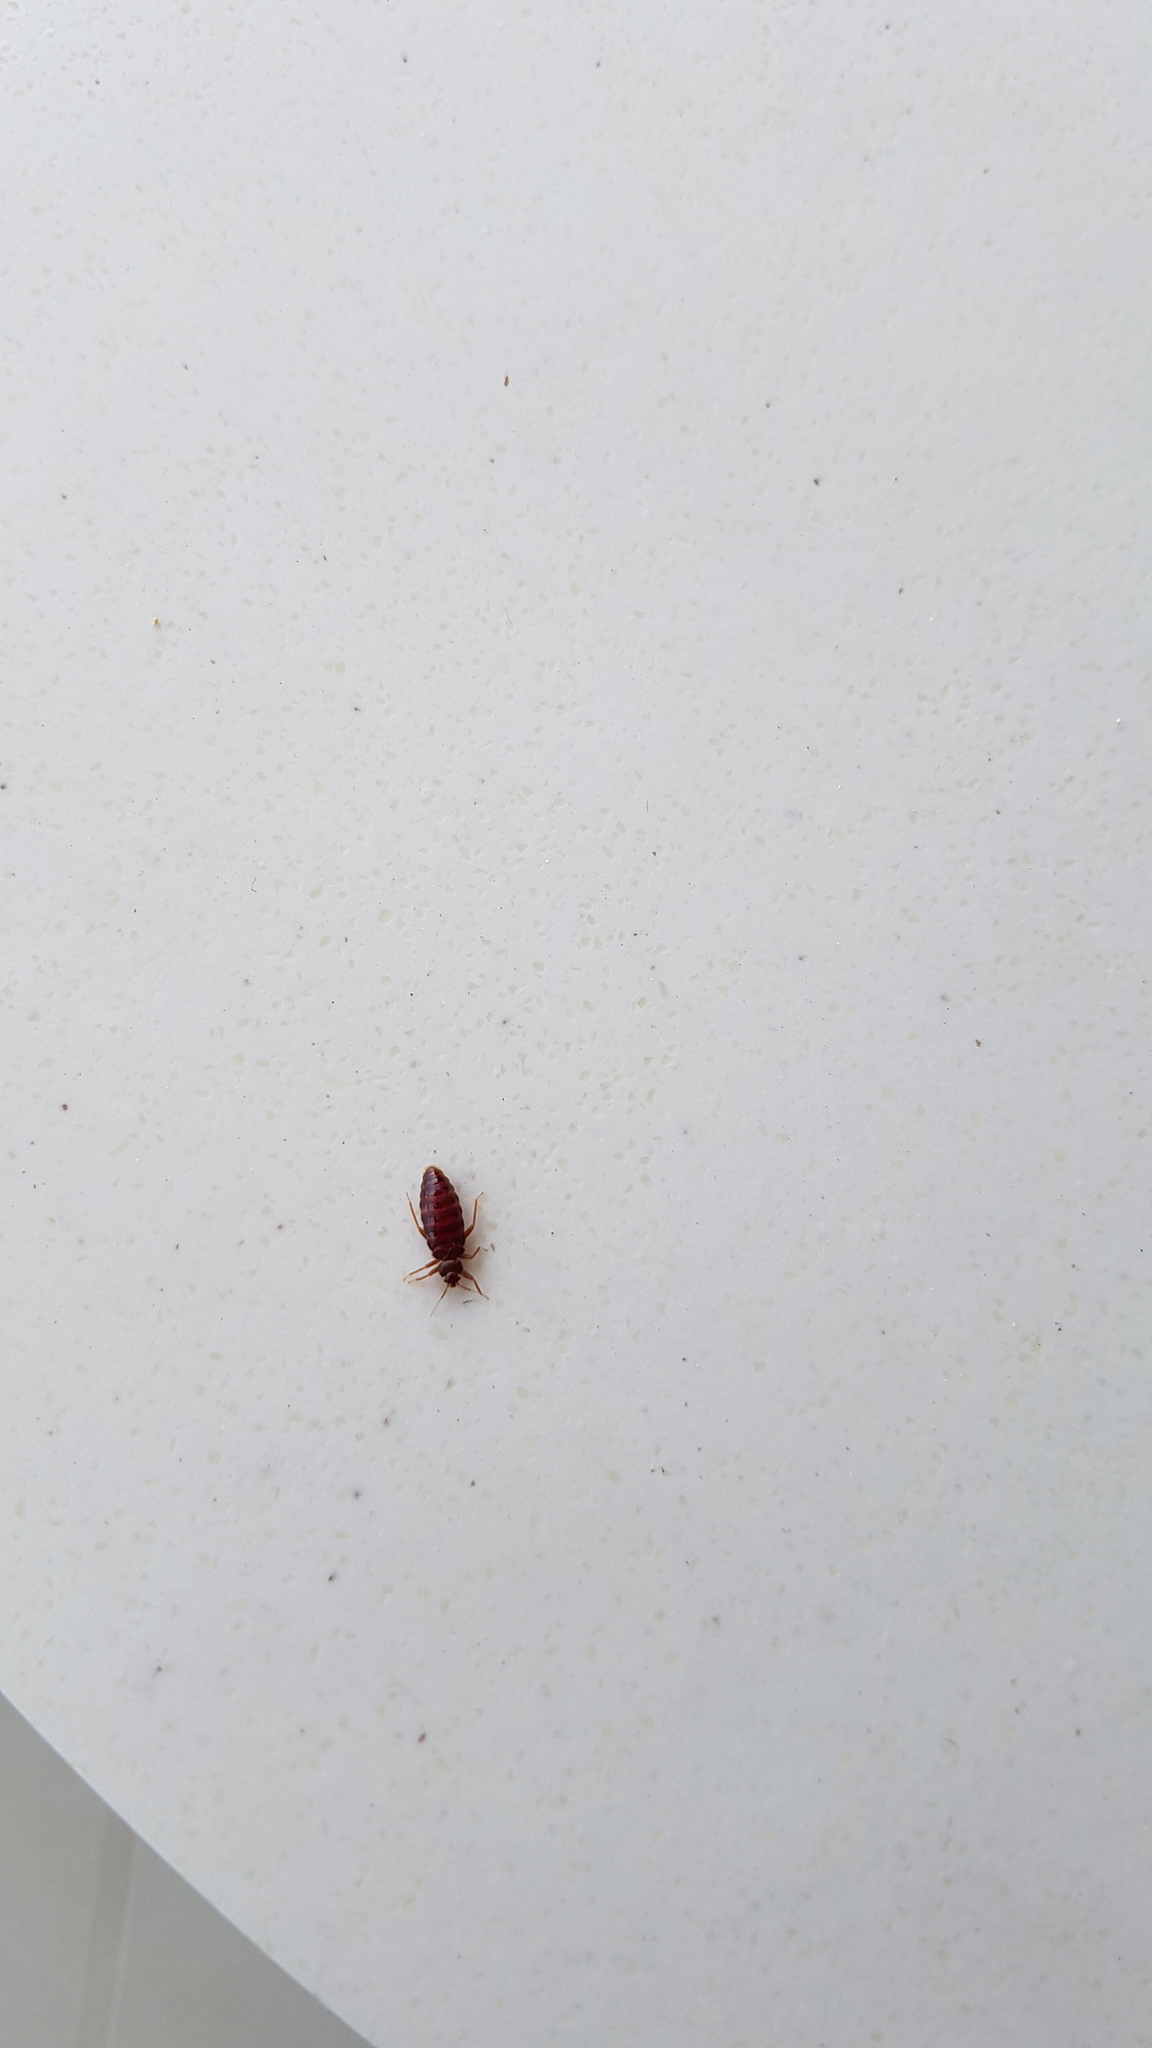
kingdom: Animalia
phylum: Arthropoda
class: Insecta
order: Hemiptera
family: Cimicidae
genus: Cimex
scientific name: Cimex lectularius
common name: Bed bug
